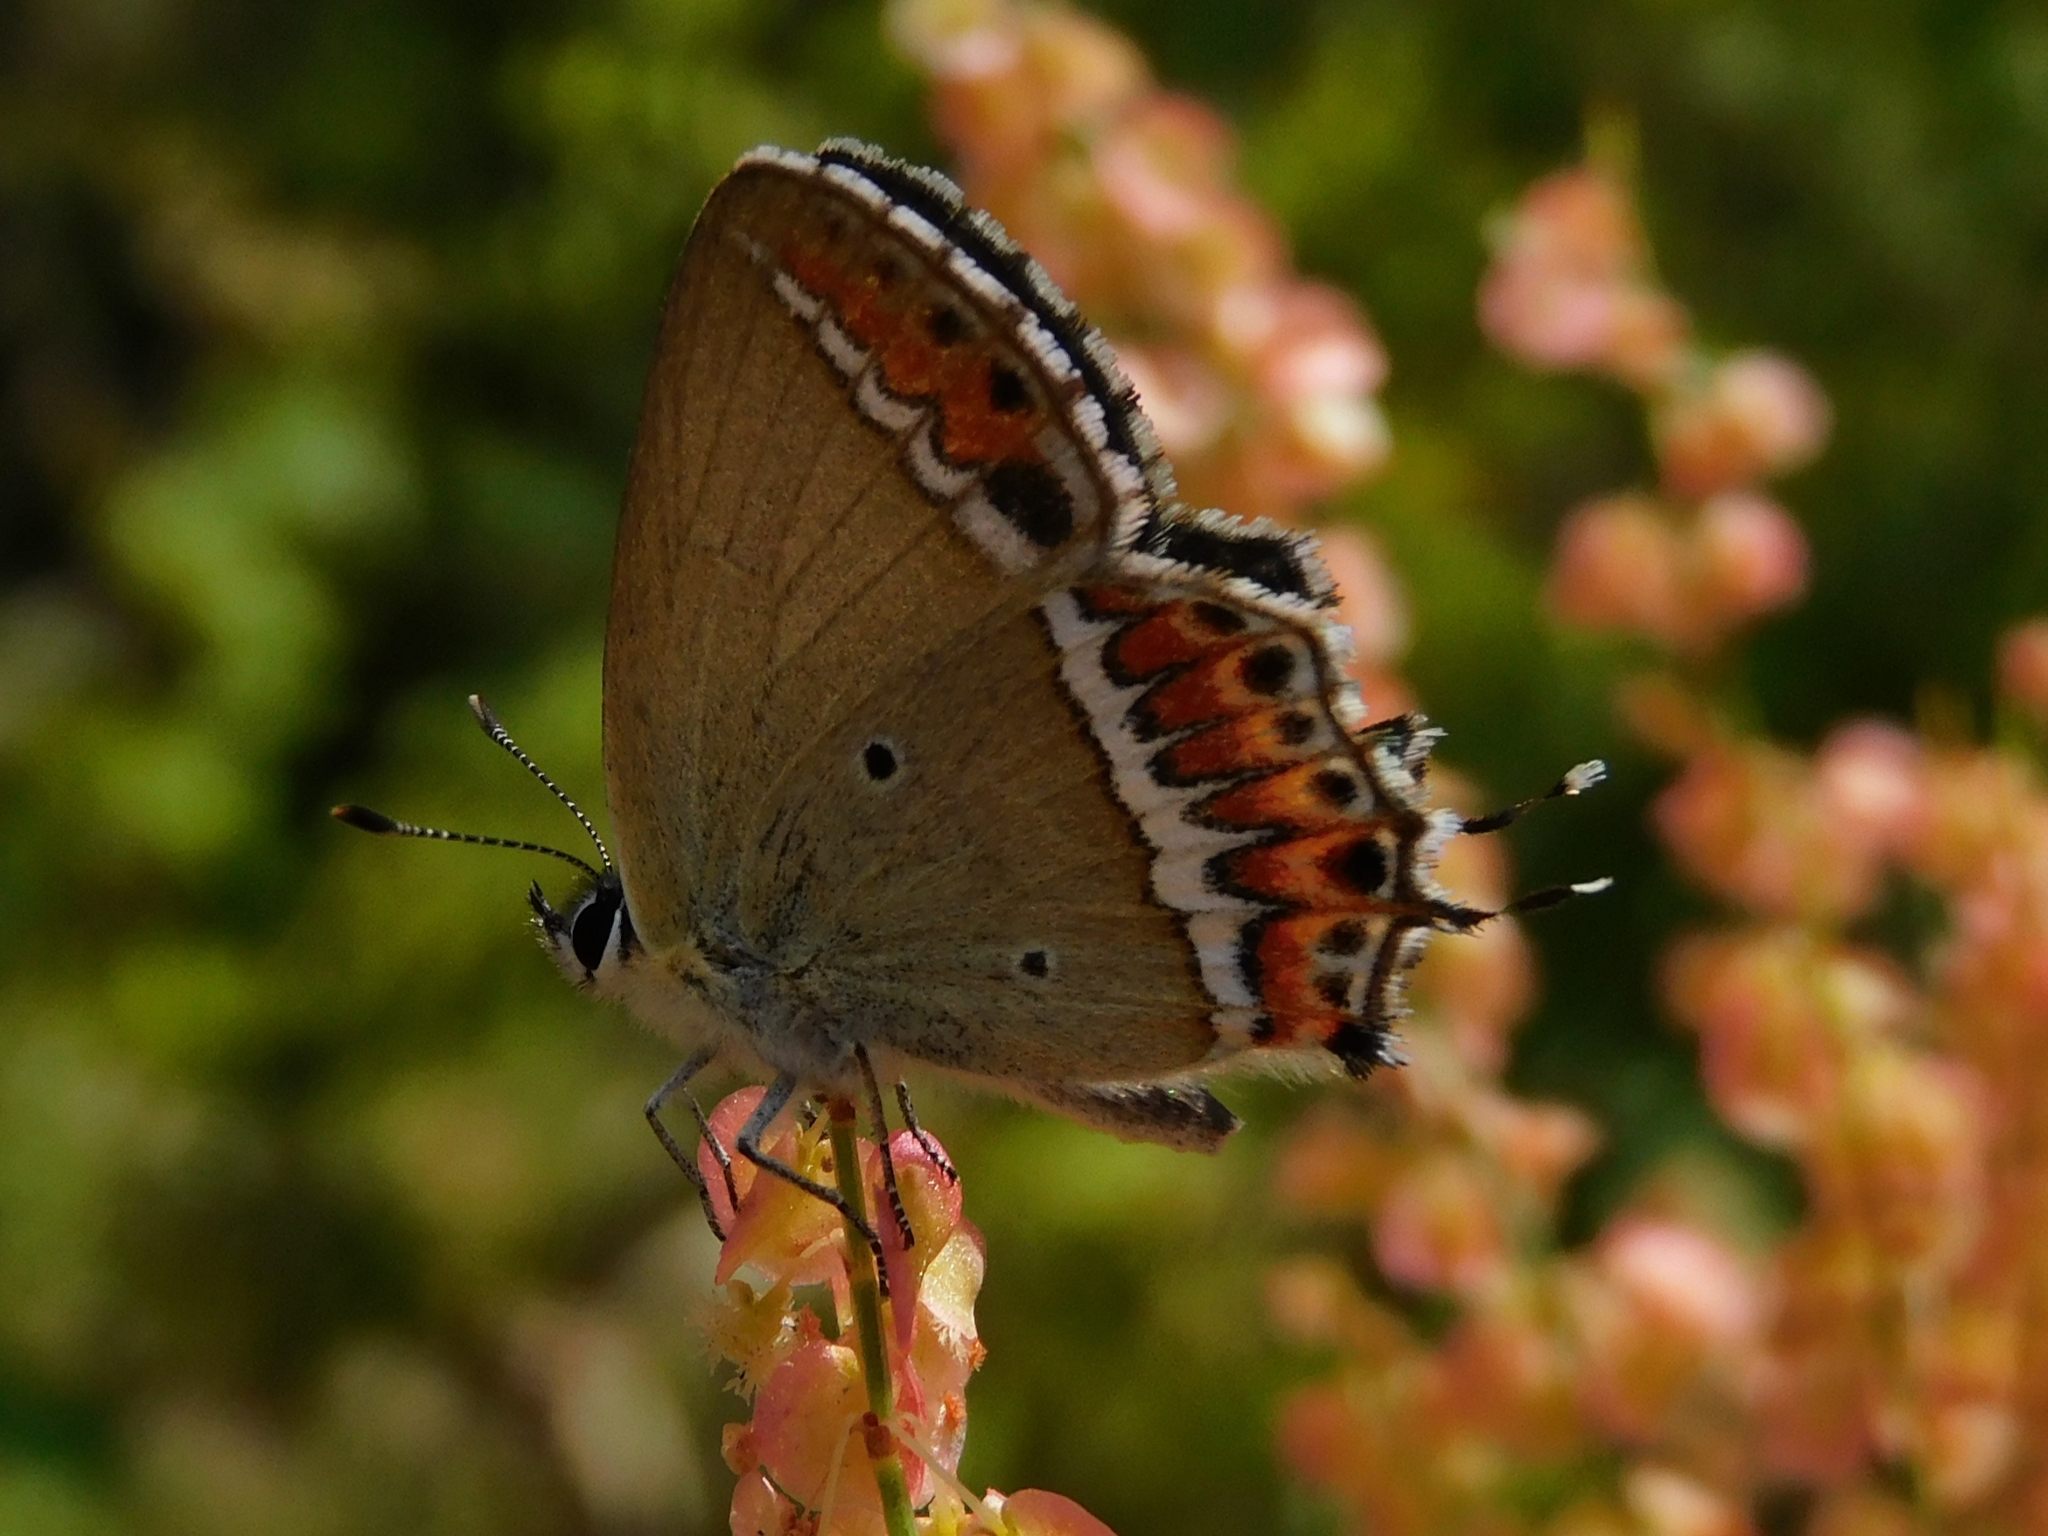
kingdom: Animalia
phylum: Arthropoda
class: Insecta
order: Lepidoptera
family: Lycaenidae
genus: Heliophorus
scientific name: Heliophorus sena
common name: Sorrel sapphire
